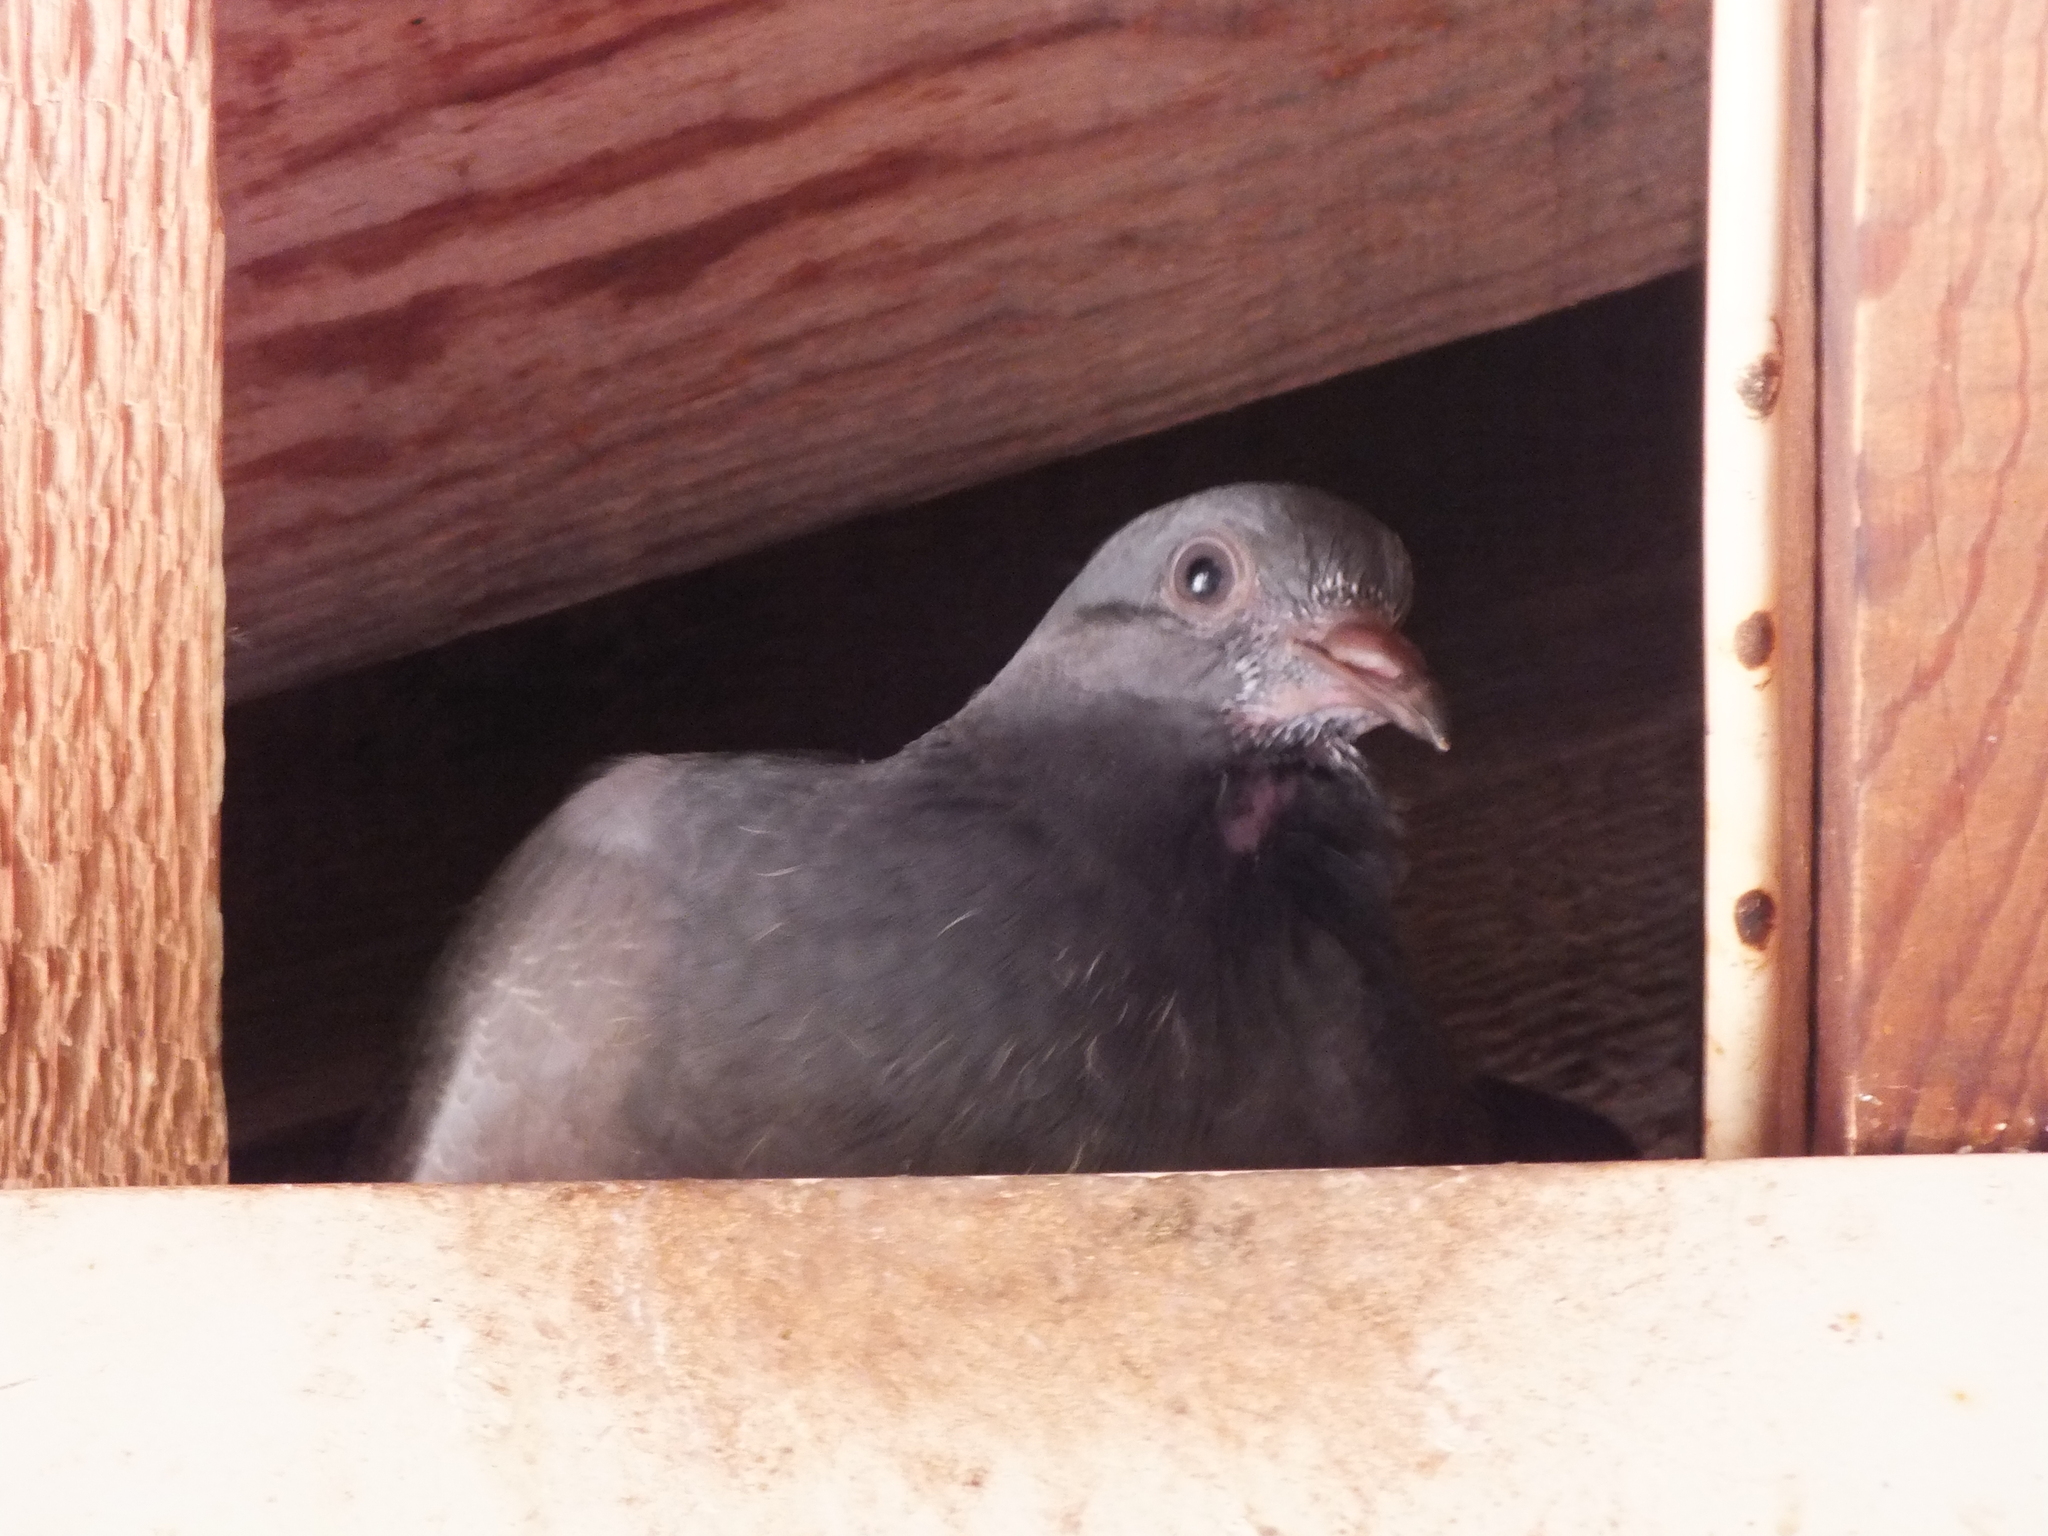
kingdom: Animalia
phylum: Chordata
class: Aves
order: Columbiformes
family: Columbidae
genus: Columba
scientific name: Columba livia
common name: Rock pigeon
